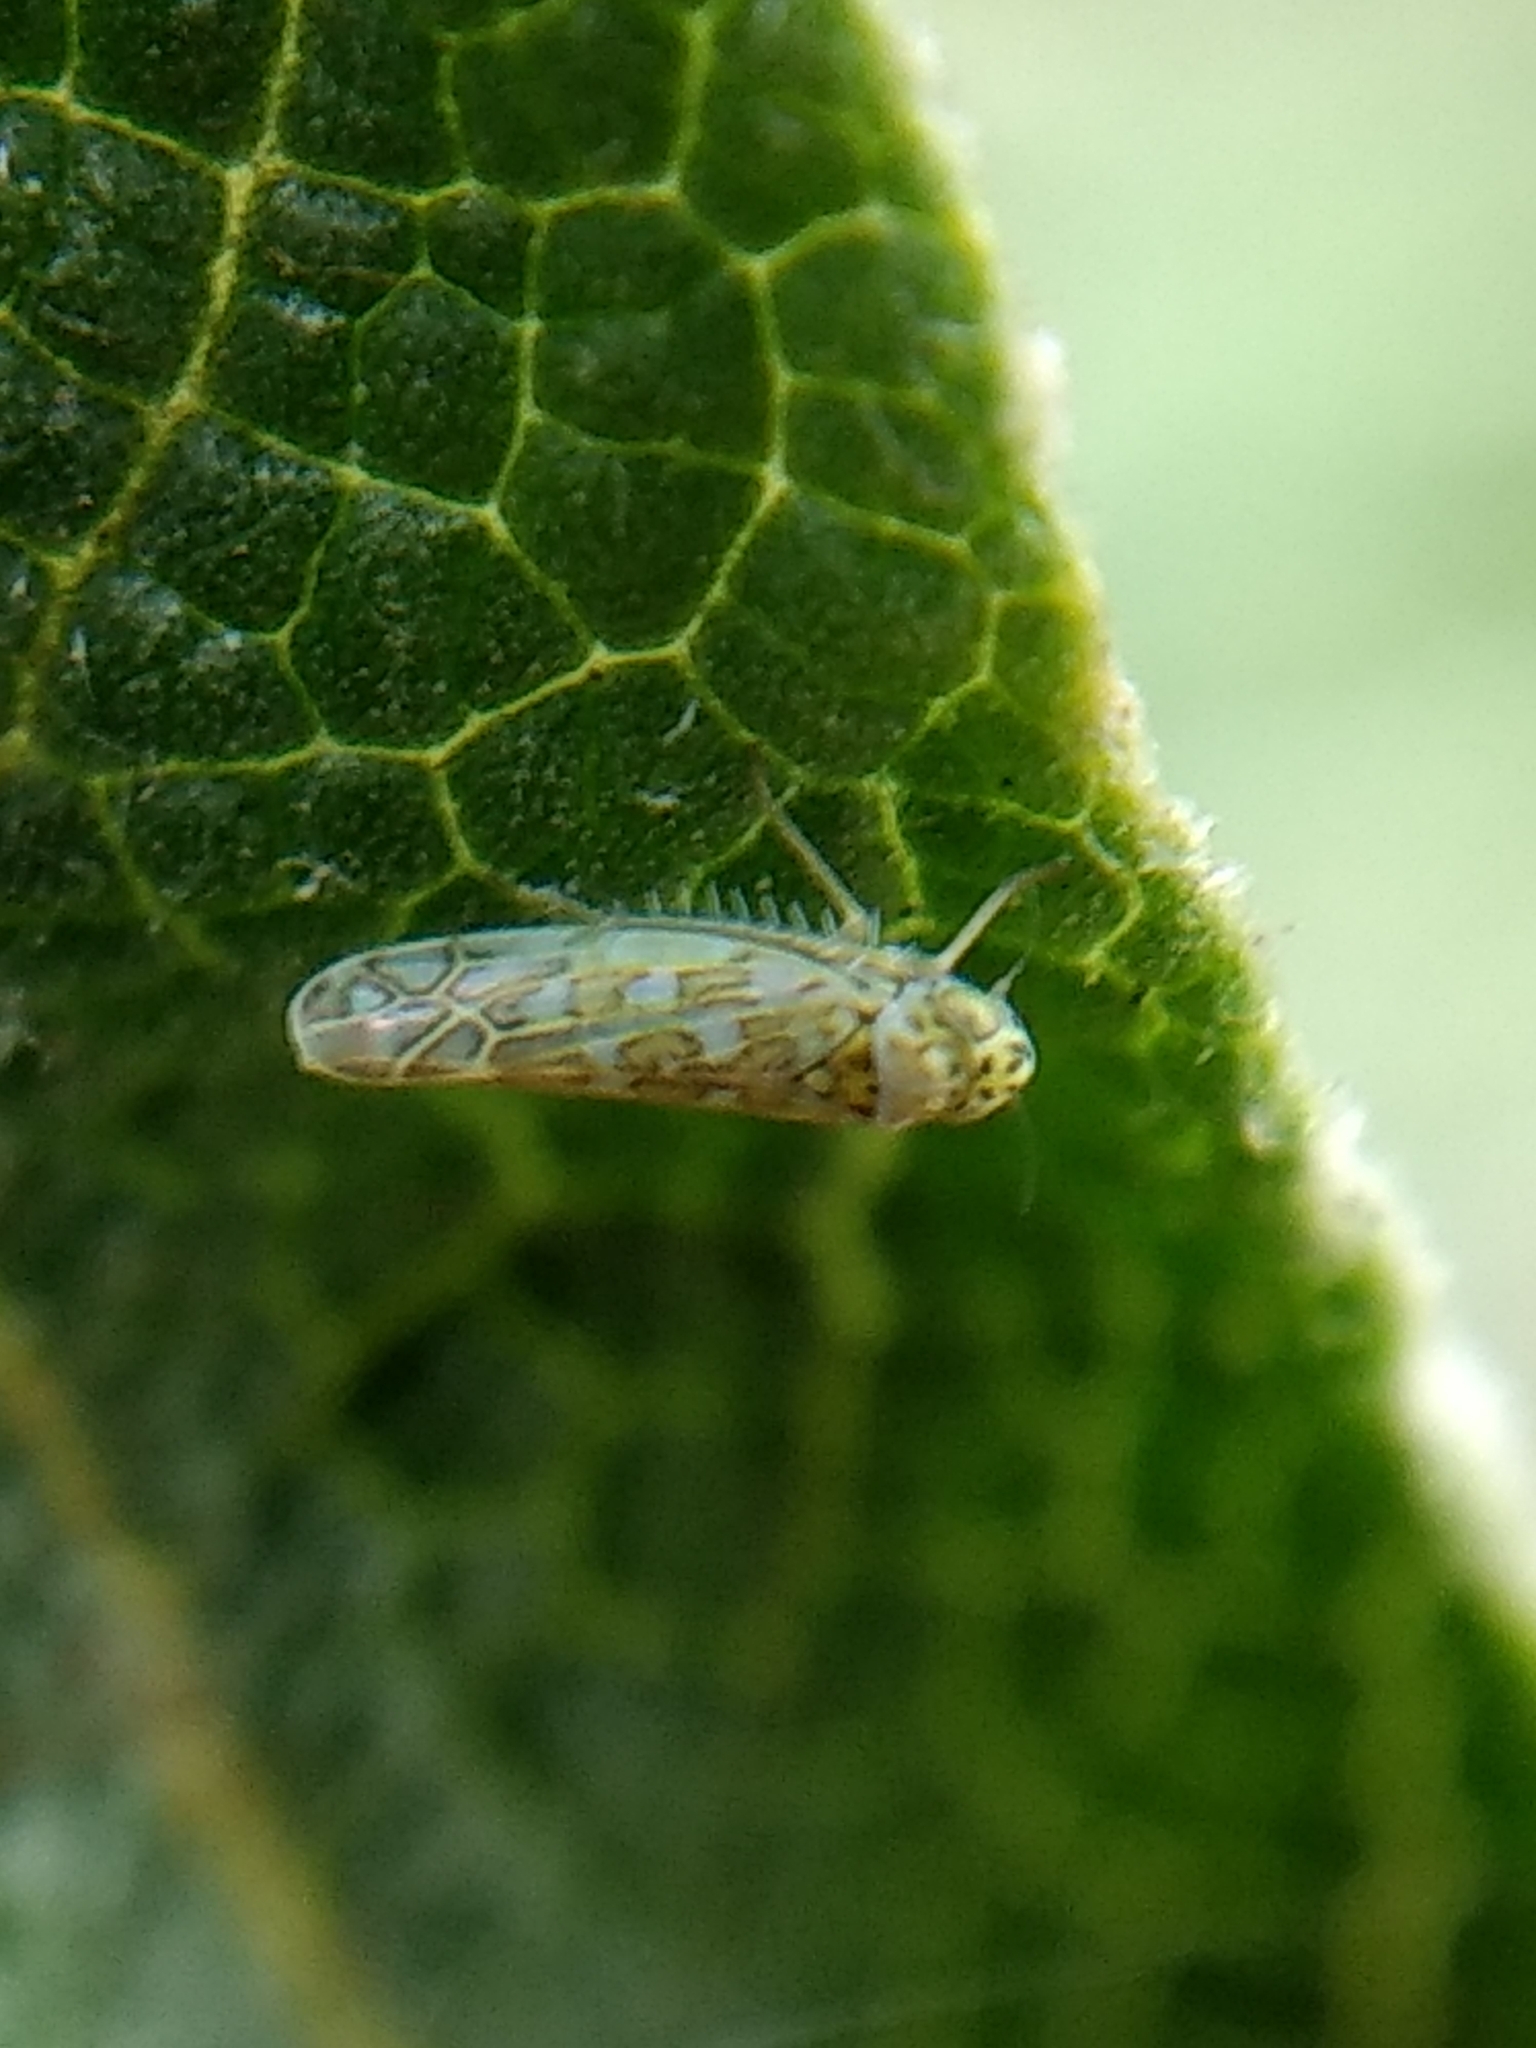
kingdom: Animalia
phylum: Arthropoda
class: Insecta
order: Hemiptera
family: Cicadellidae
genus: Eupteryx
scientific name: Eupteryx decemnotata
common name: Ligurian leafhopper
